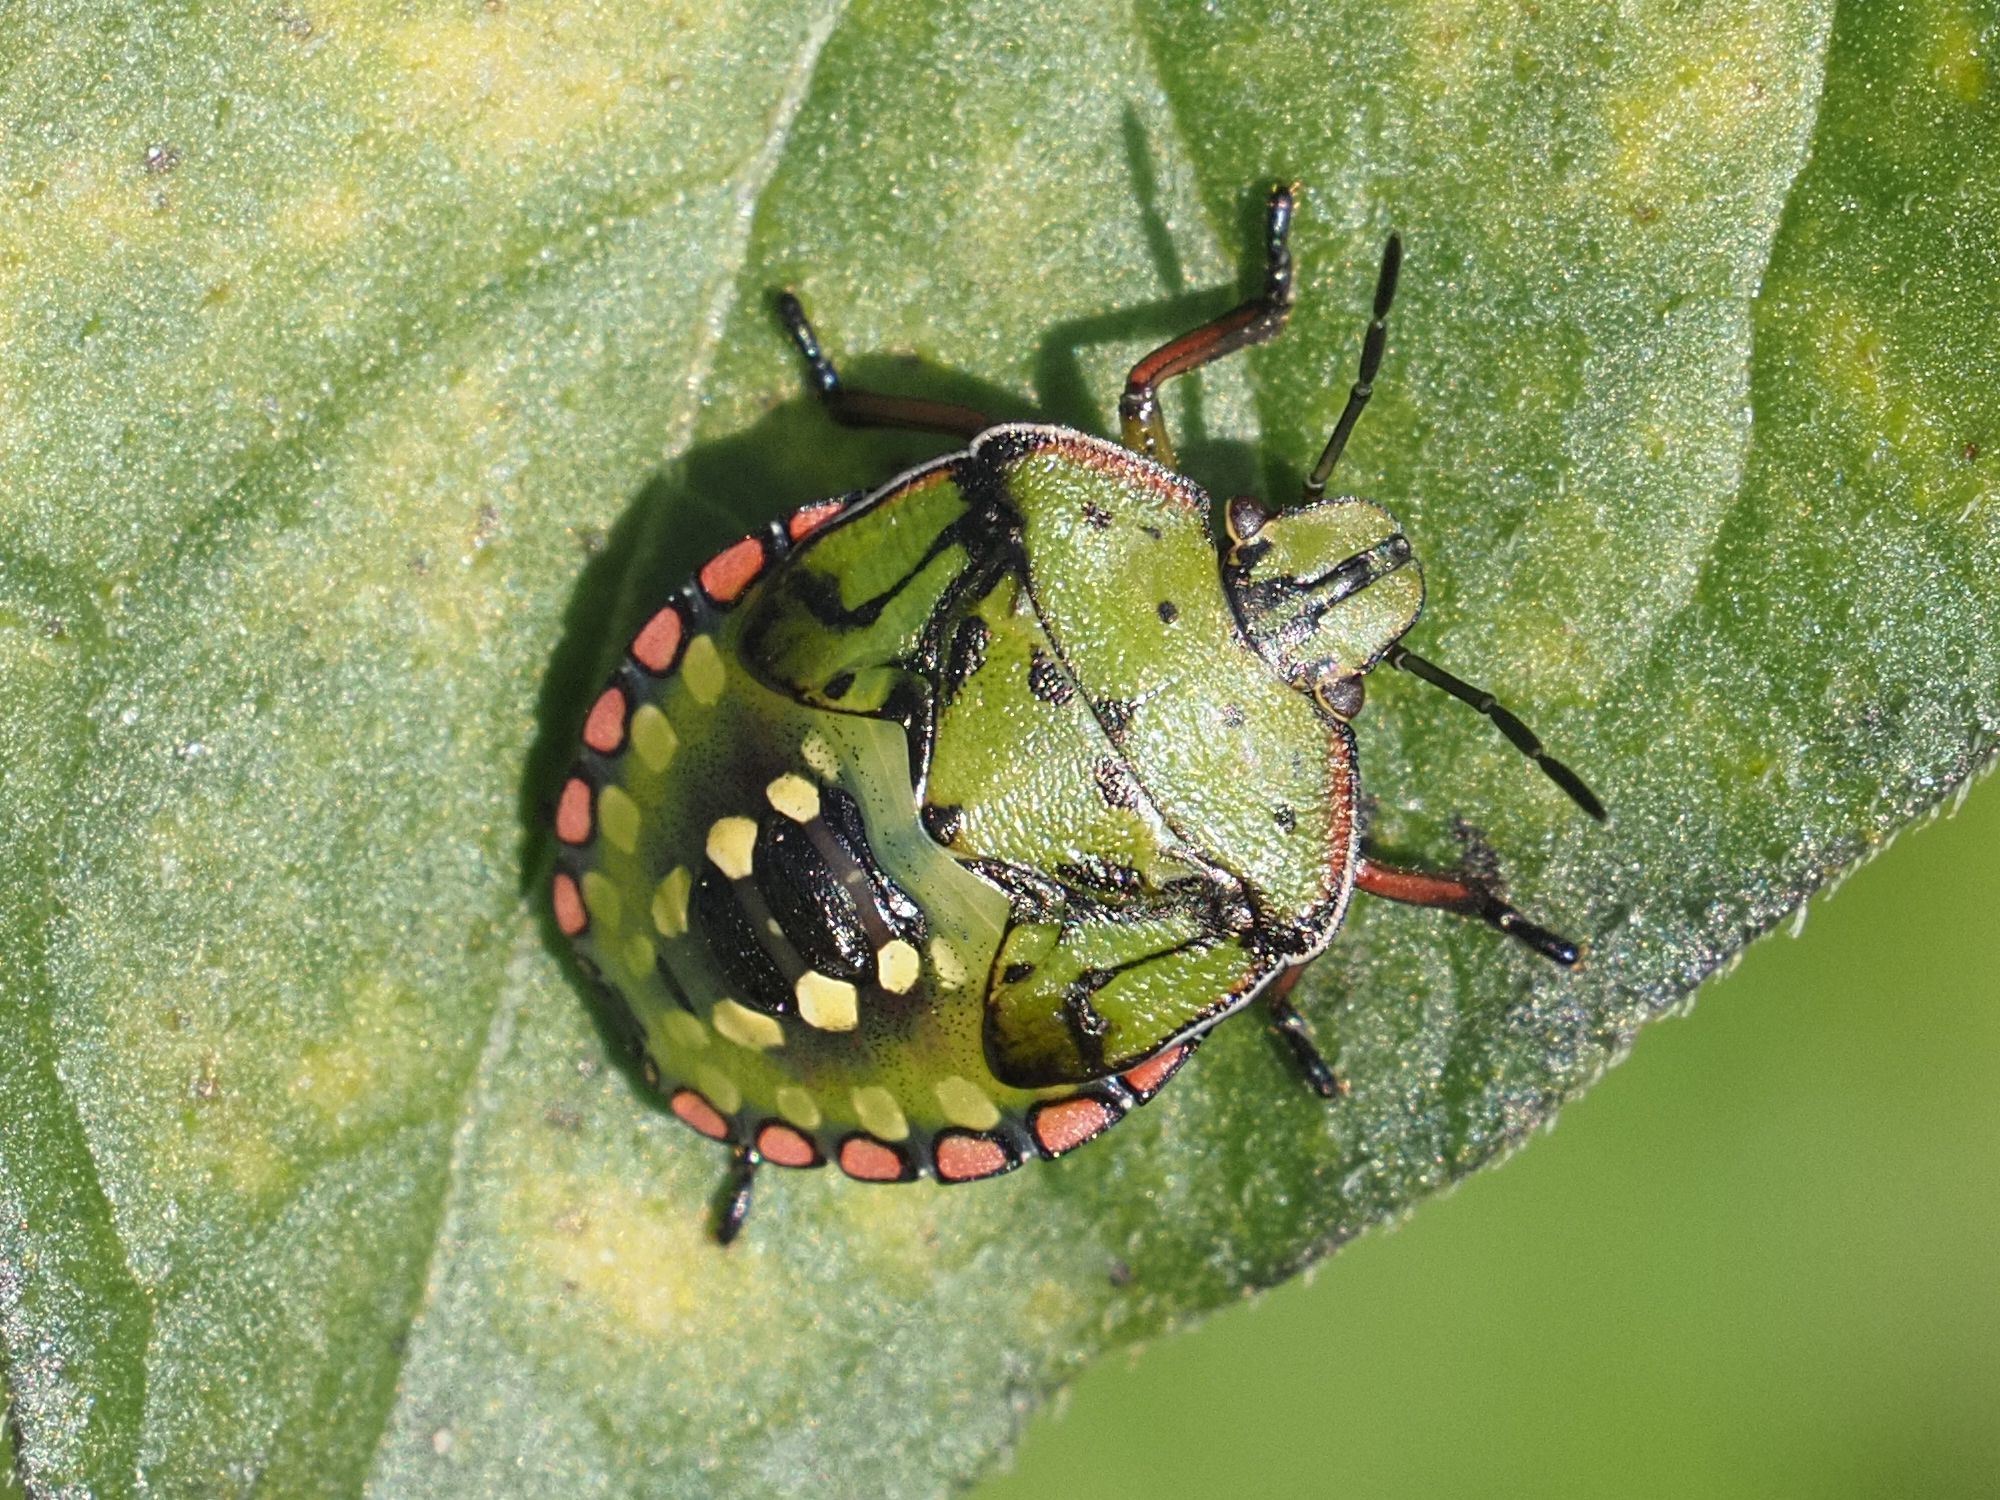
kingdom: Animalia
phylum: Arthropoda
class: Insecta
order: Hemiptera
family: Pentatomidae
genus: Nezara
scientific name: Nezara viridula
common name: Southern green stink bug
